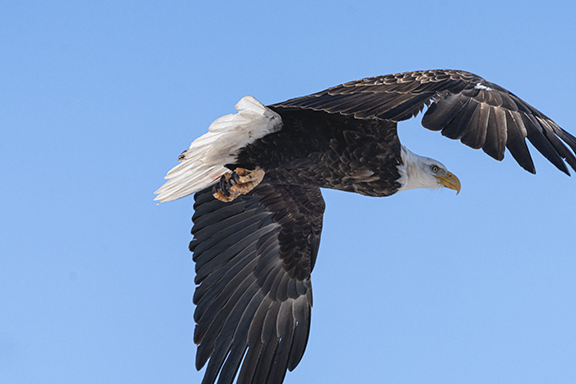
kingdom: Animalia
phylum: Chordata
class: Aves
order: Accipitriformes
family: Accipitridae
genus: Haliaeetus
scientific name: Haliaeetus leucocephalus
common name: Bald eagle
